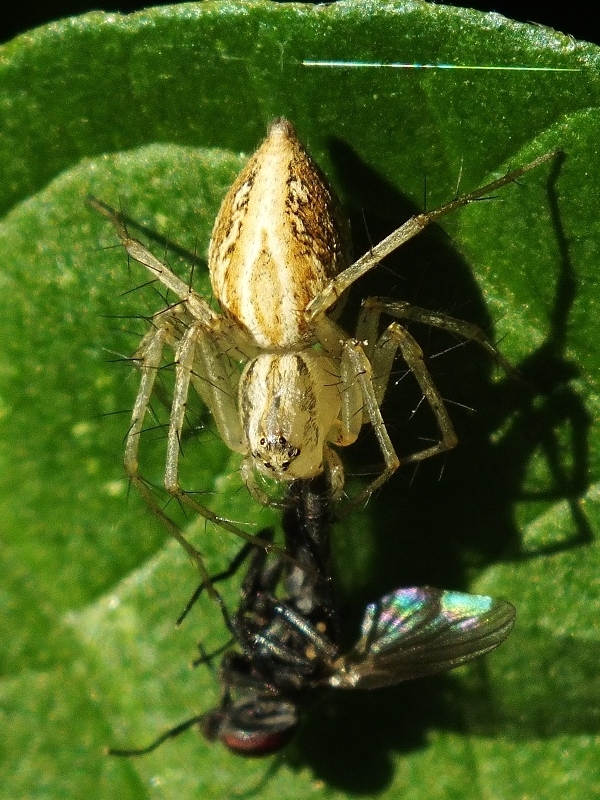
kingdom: Animalia
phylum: Arthropoda
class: Arachnida
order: Araneae
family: Oxyopidae
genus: Oxyopes
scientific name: Oxyopes lineatus
